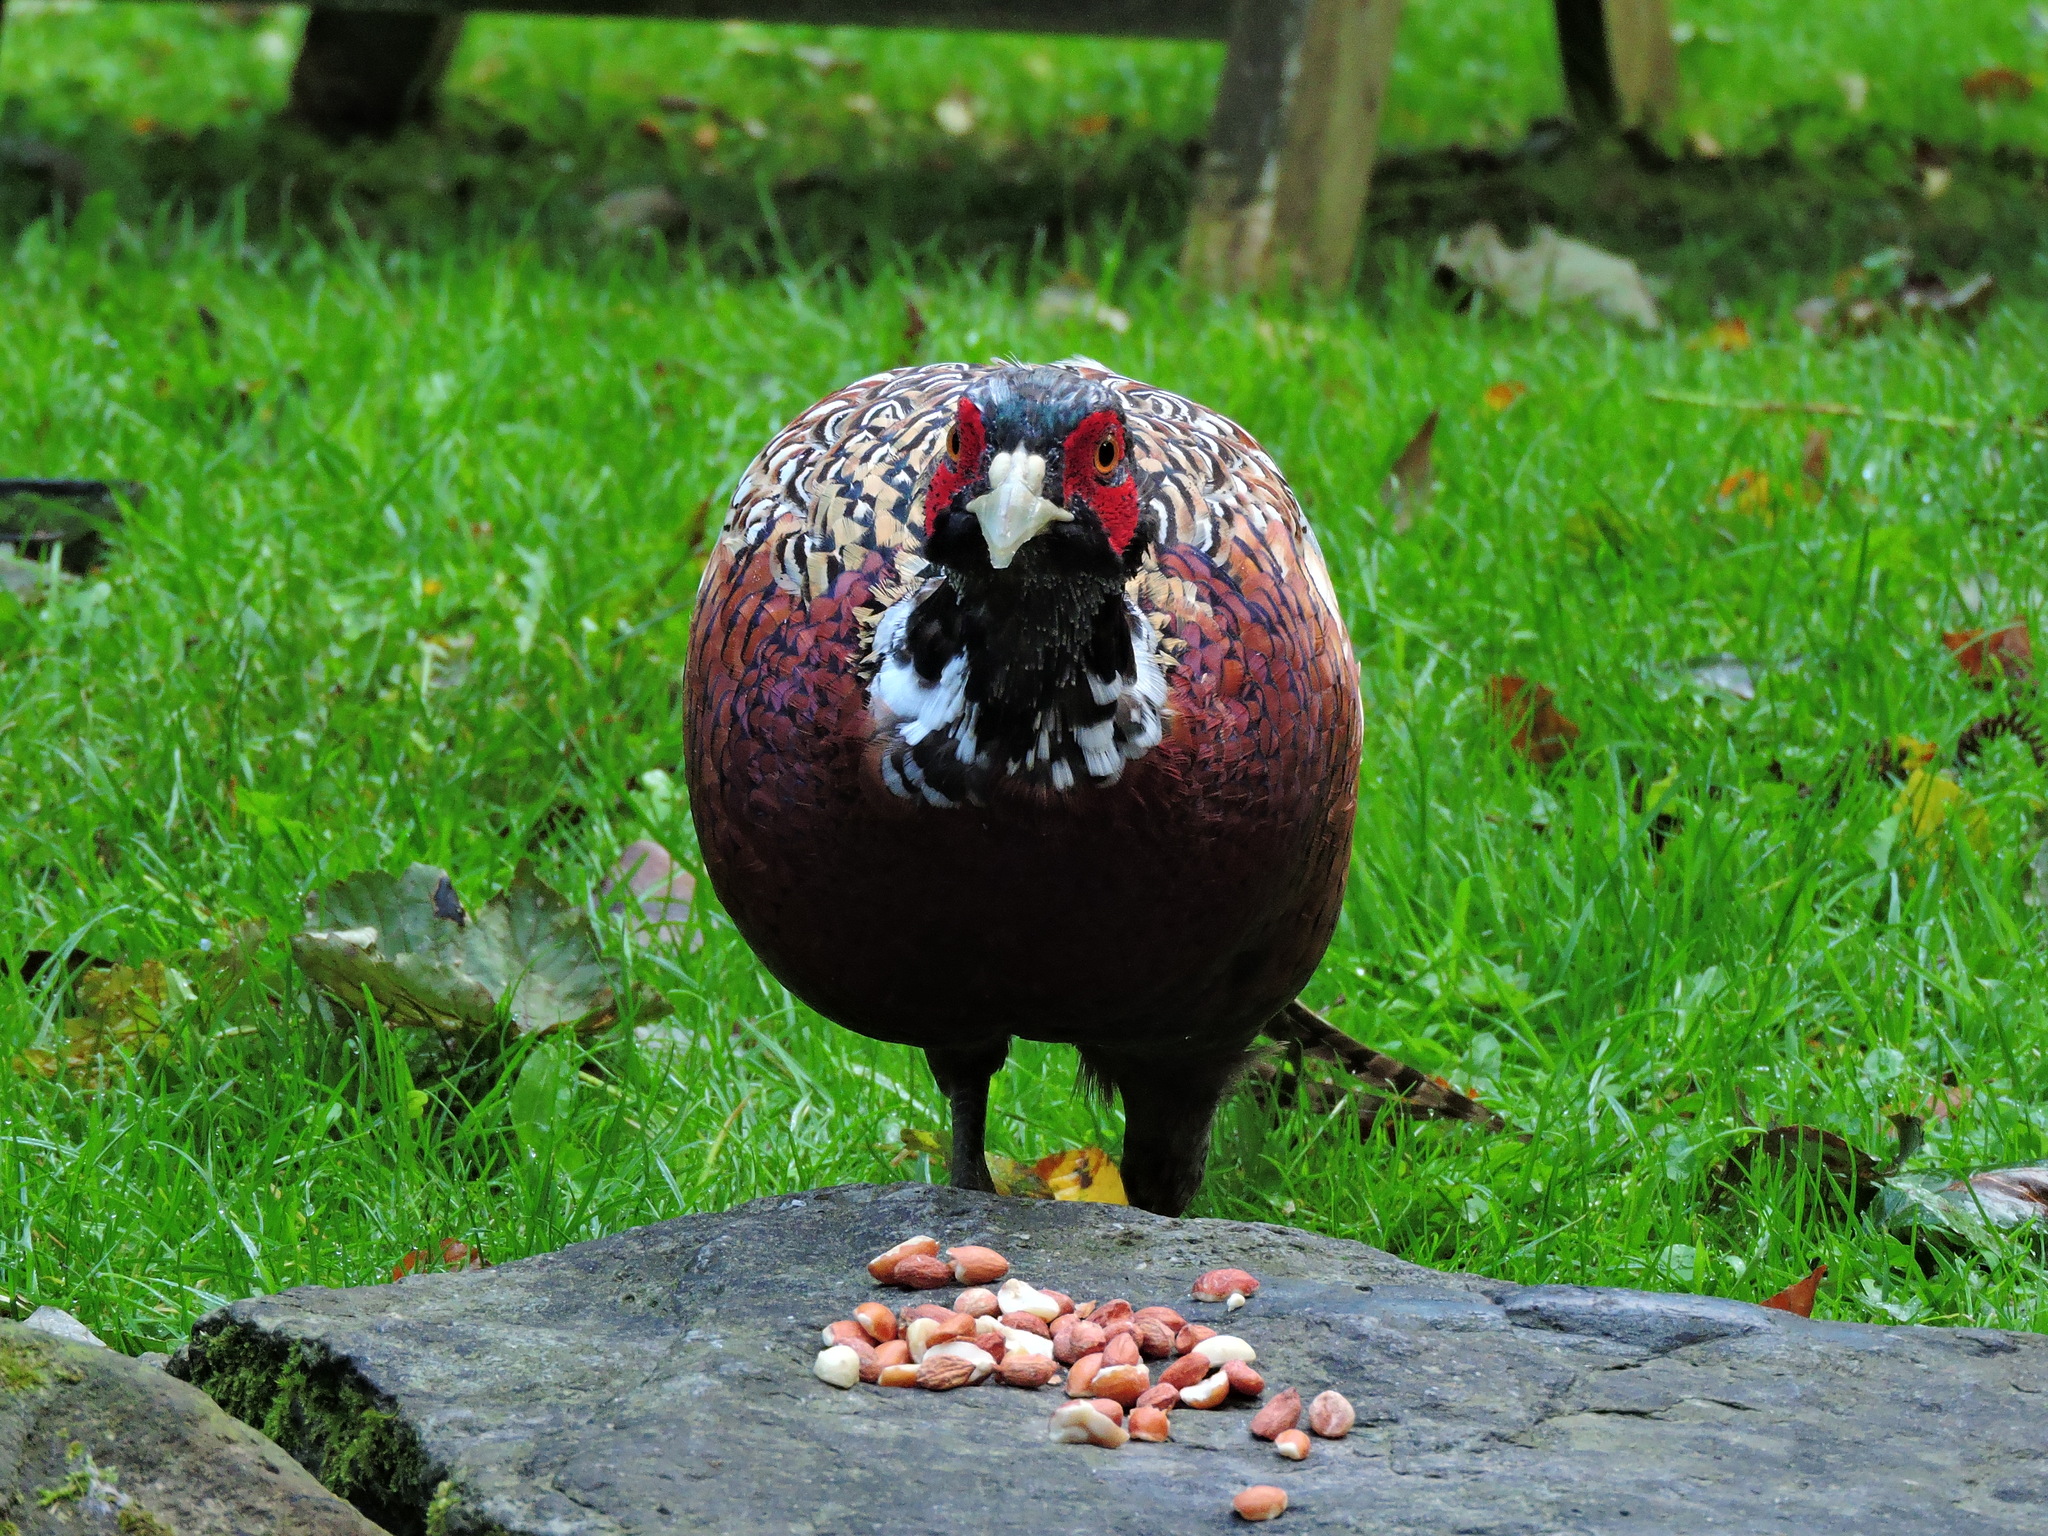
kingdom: Animalia
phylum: Chordata
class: Aves
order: Galliformes
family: Phasianidae
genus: Phasianus
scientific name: Phasianus colchicus
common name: Common pheasant
